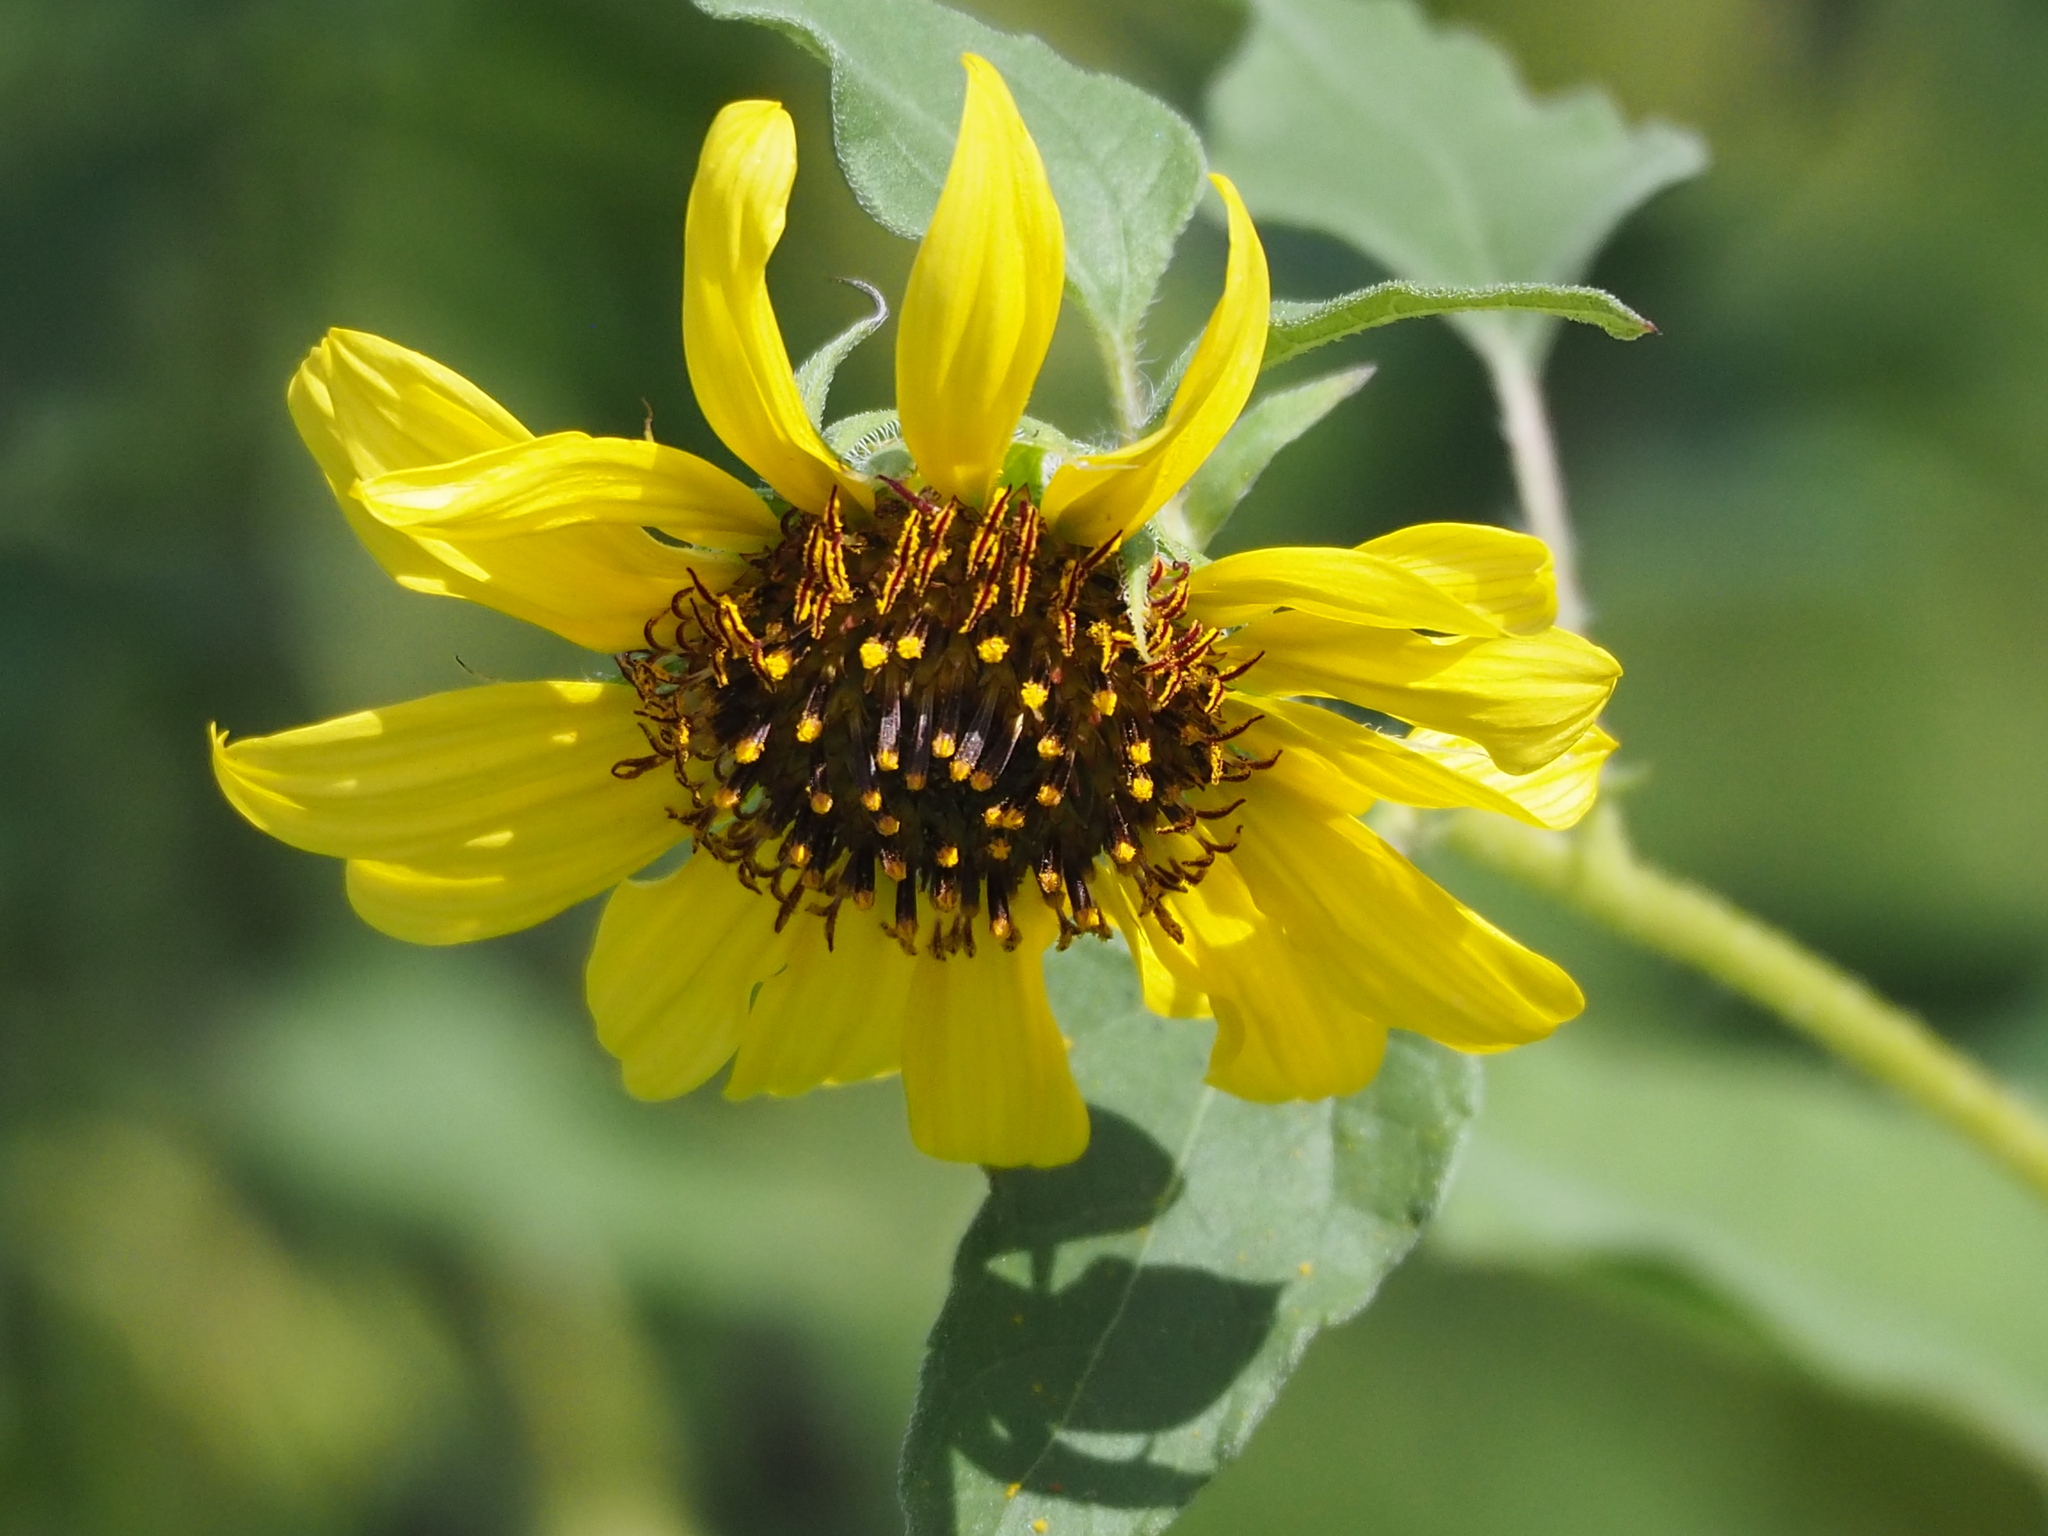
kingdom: Plantae
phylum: Tracheophyta
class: Magnoliopsida
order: Asterales
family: Asteraceae
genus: Helianthus
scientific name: Helianthus debilis
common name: Weak sunflower
